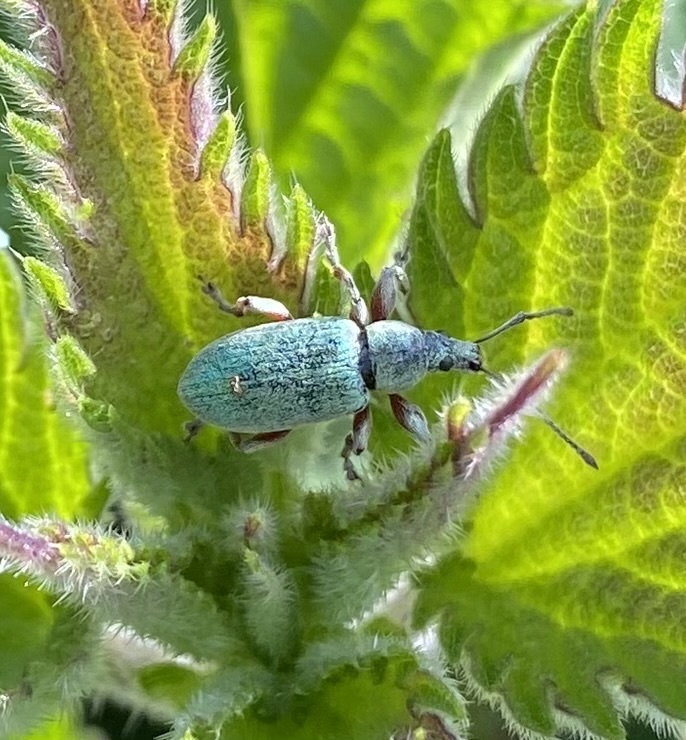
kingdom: Animalia
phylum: Arthropoda
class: Insecta
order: Coleoptera
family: Curculionidae
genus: Phyllobius
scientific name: Phyllobius pomaceus
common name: Green nettle weevil
